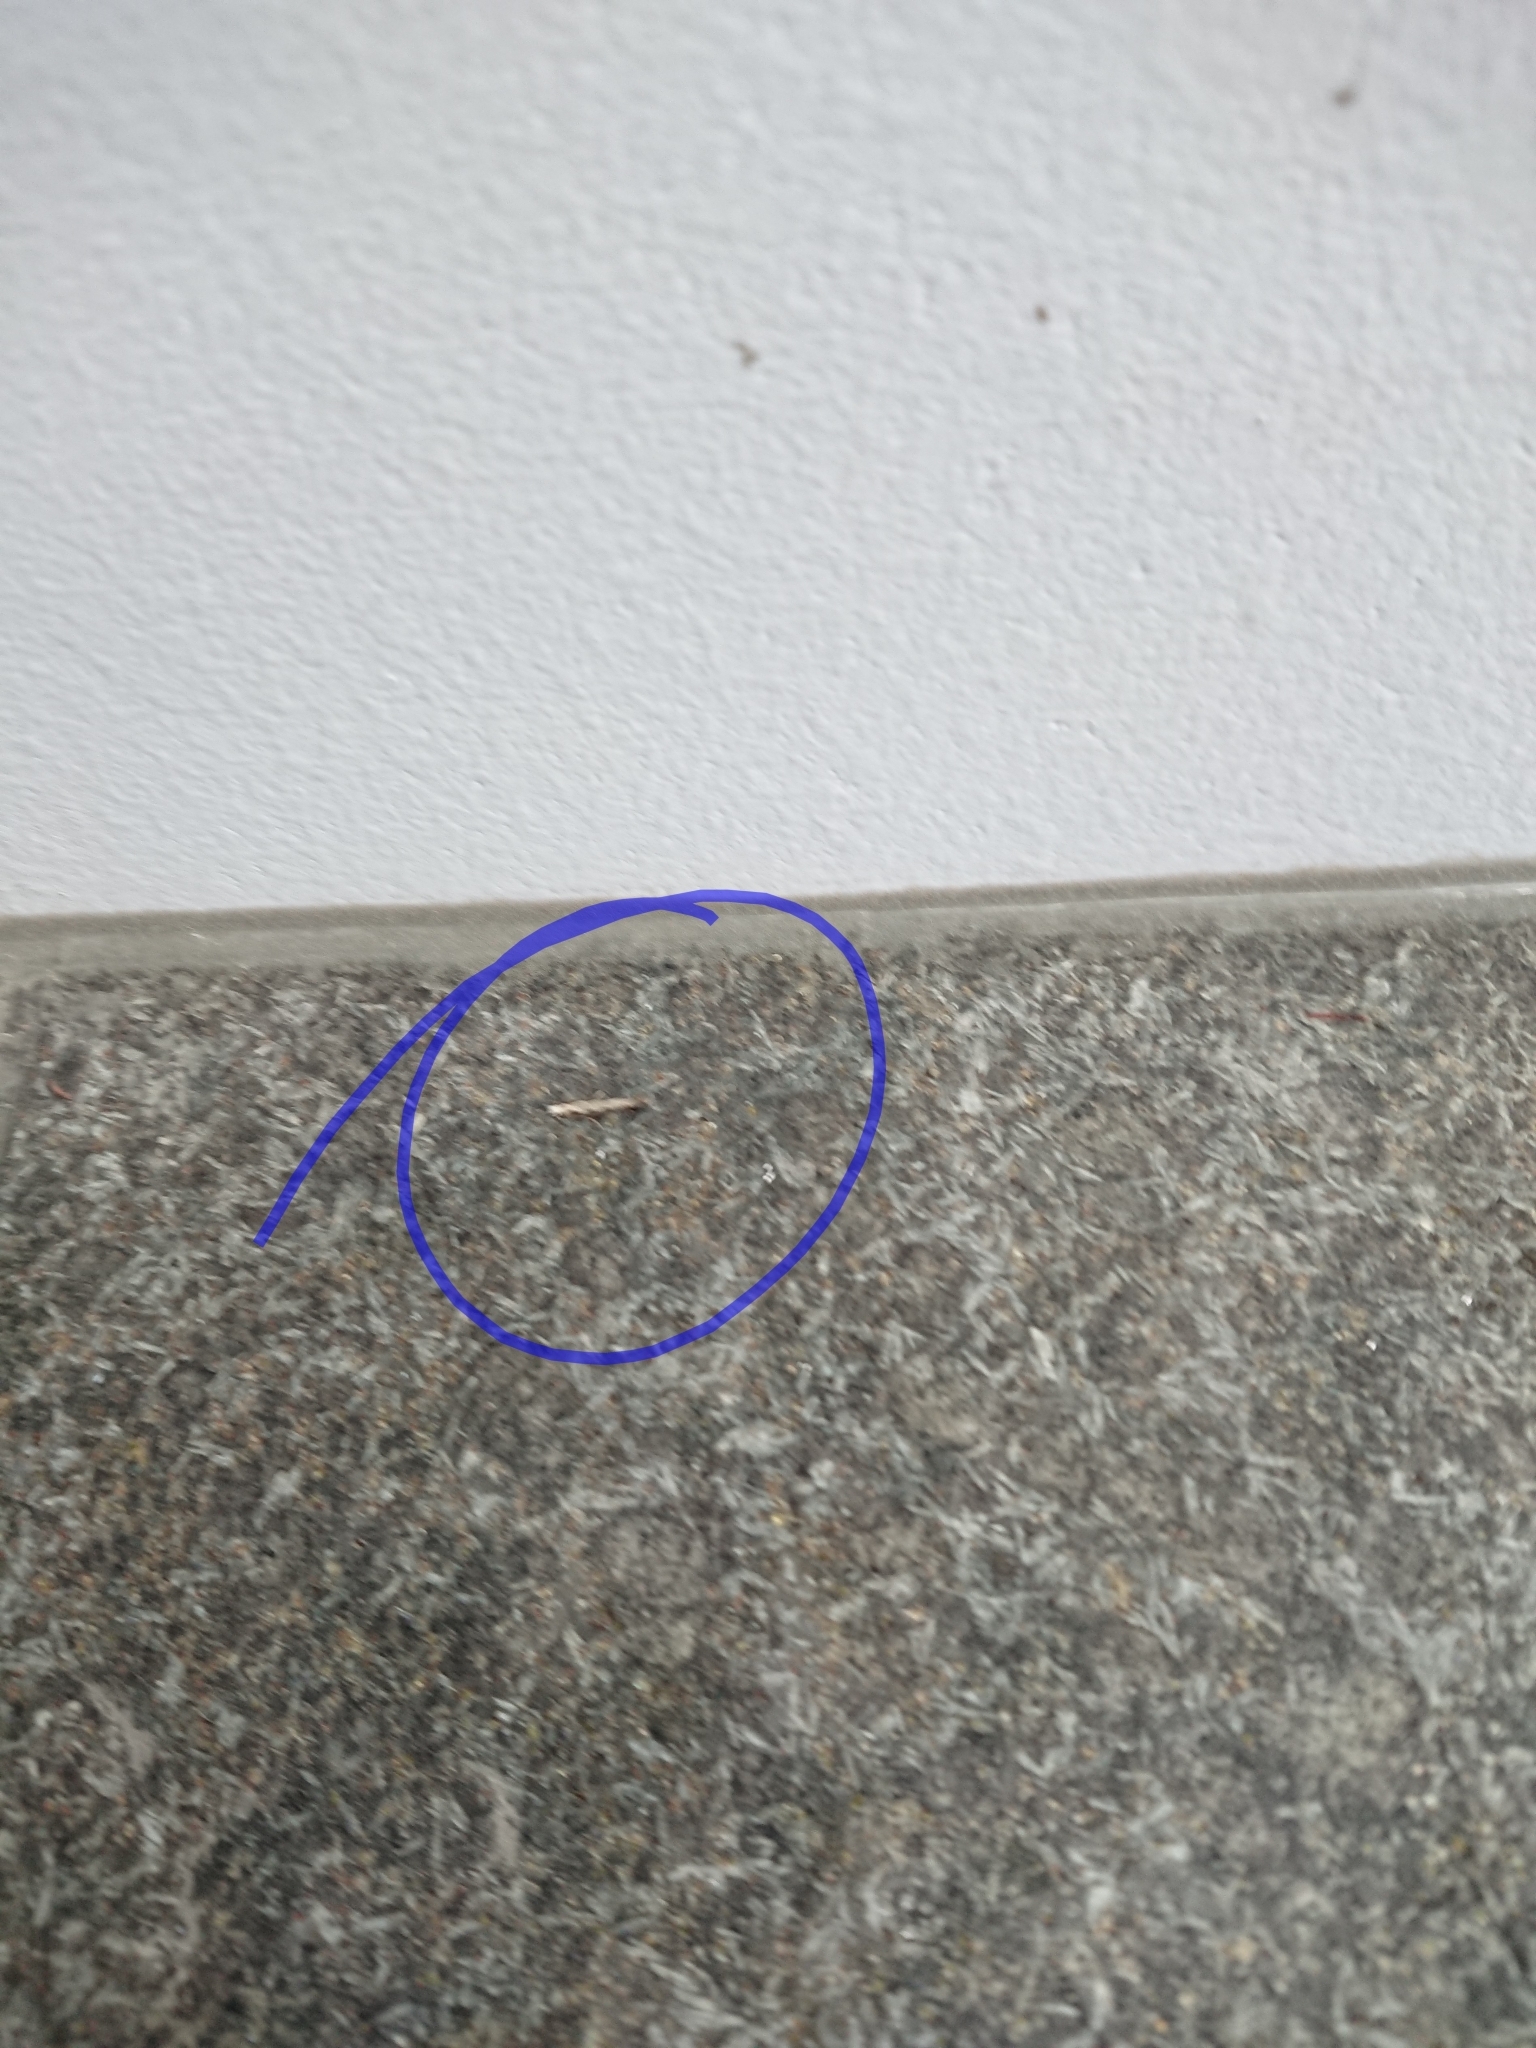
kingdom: Animalia
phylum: Arthropoda
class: Insecta
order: Lepidoptera
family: Tineidae
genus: Erechthias
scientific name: Erechthias fulguritella
